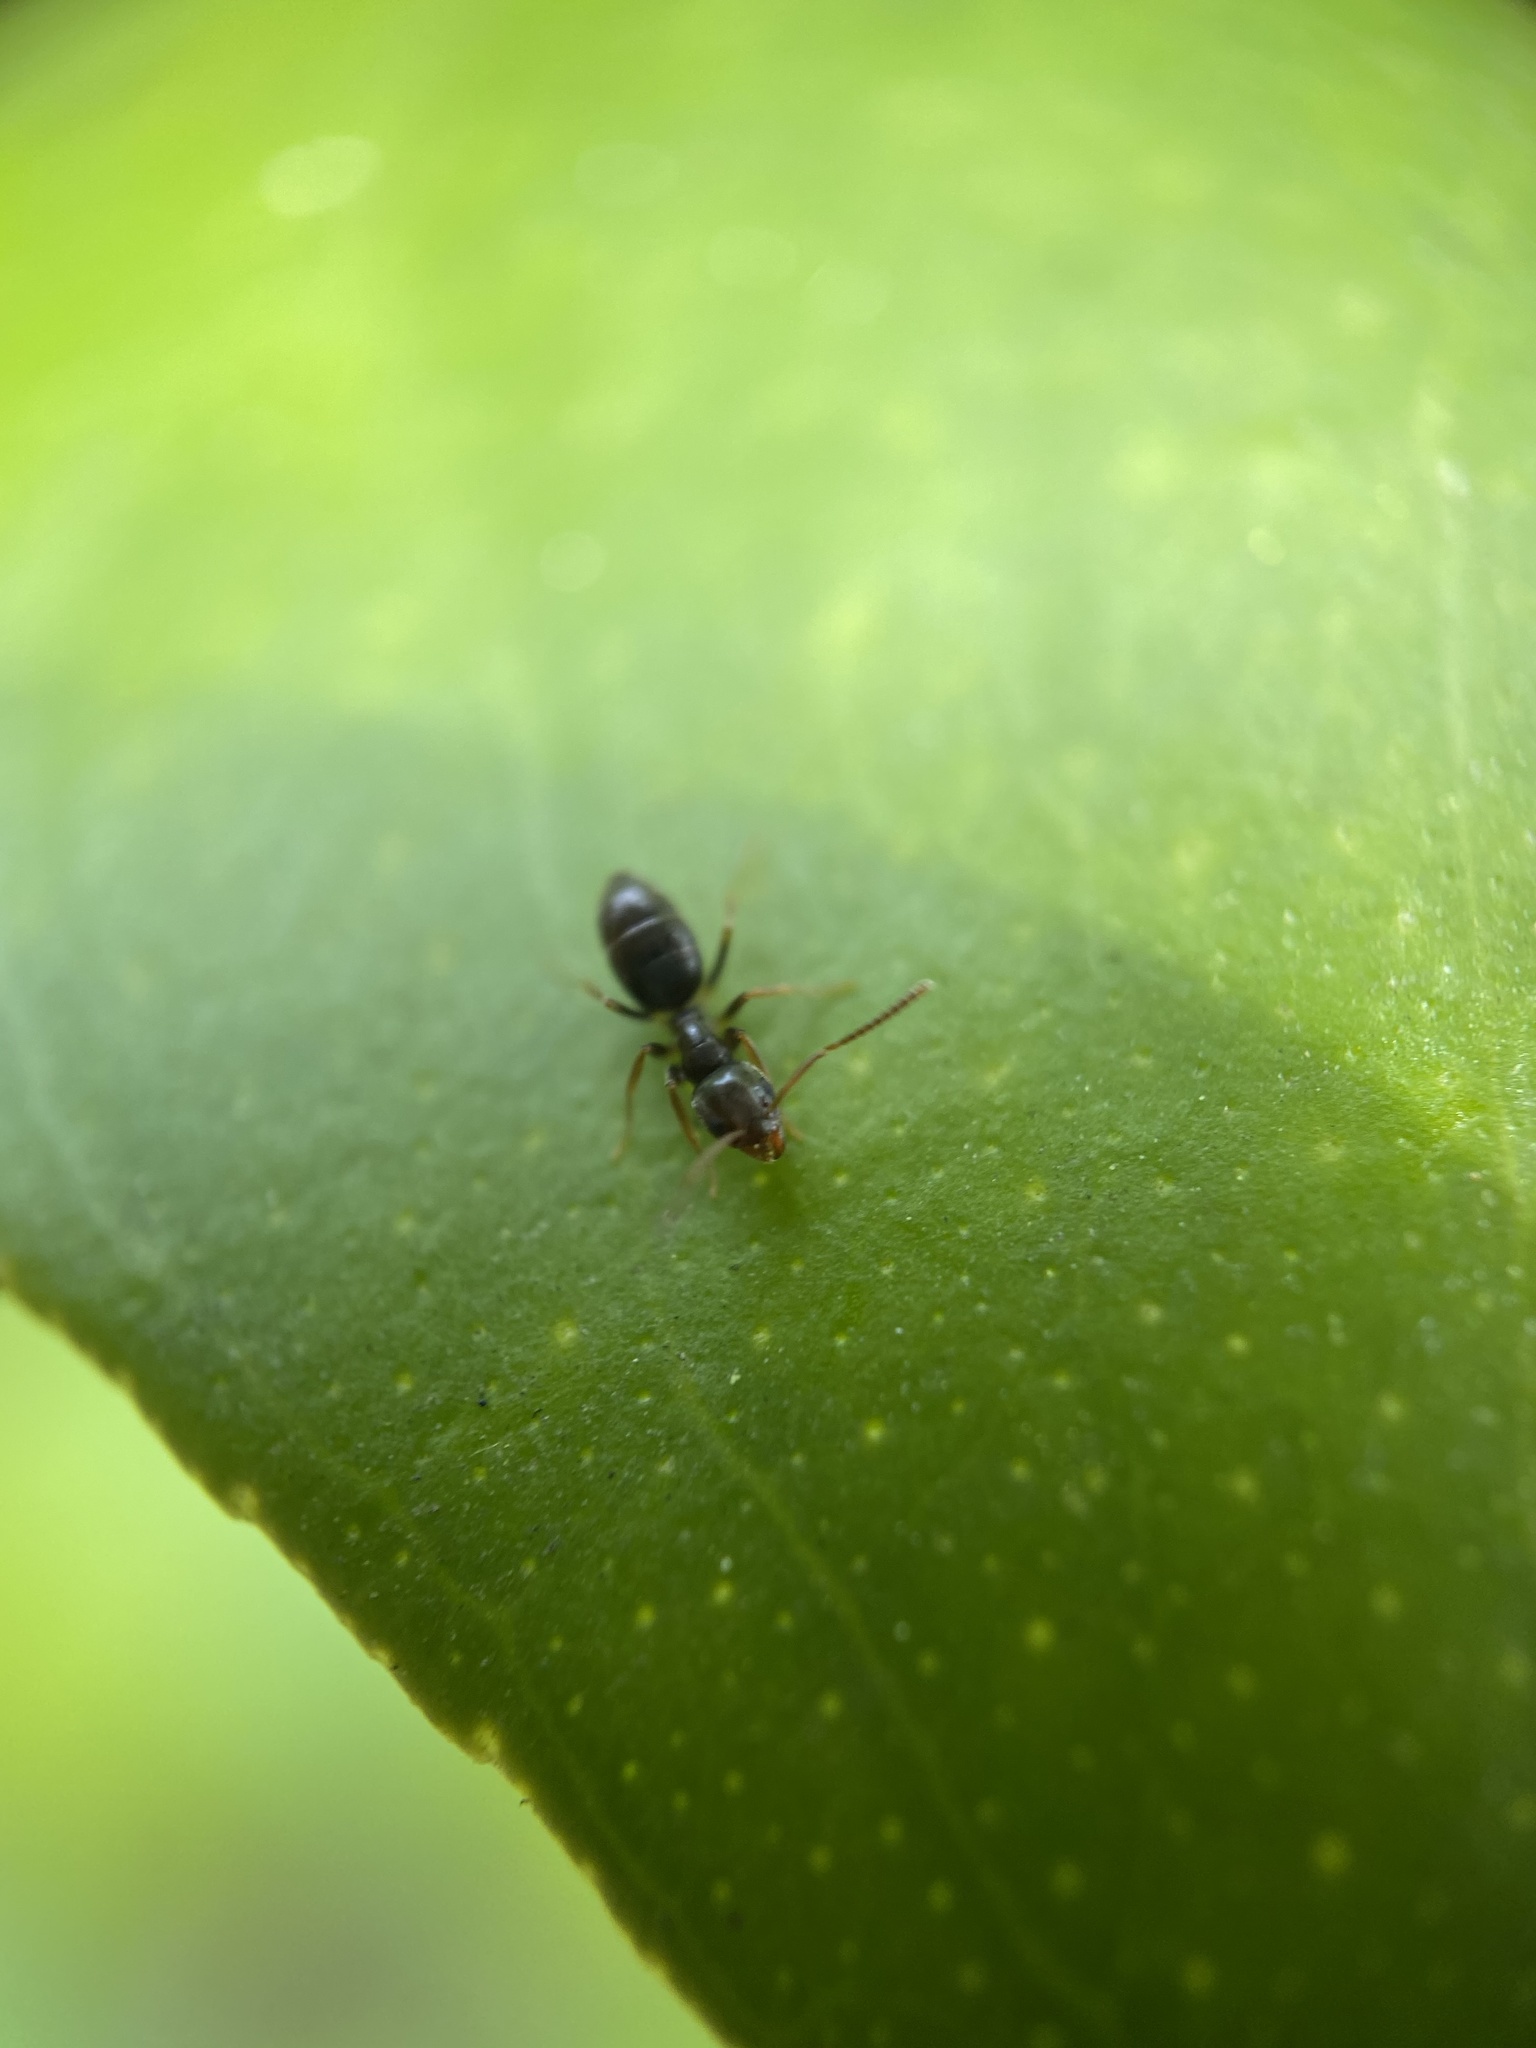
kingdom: Animalia
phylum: Arthropoda
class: Insecta
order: Hymenoptera
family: Formicidae
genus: Tapinoma
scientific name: Tapinoma sessile
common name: Odorous house ant
